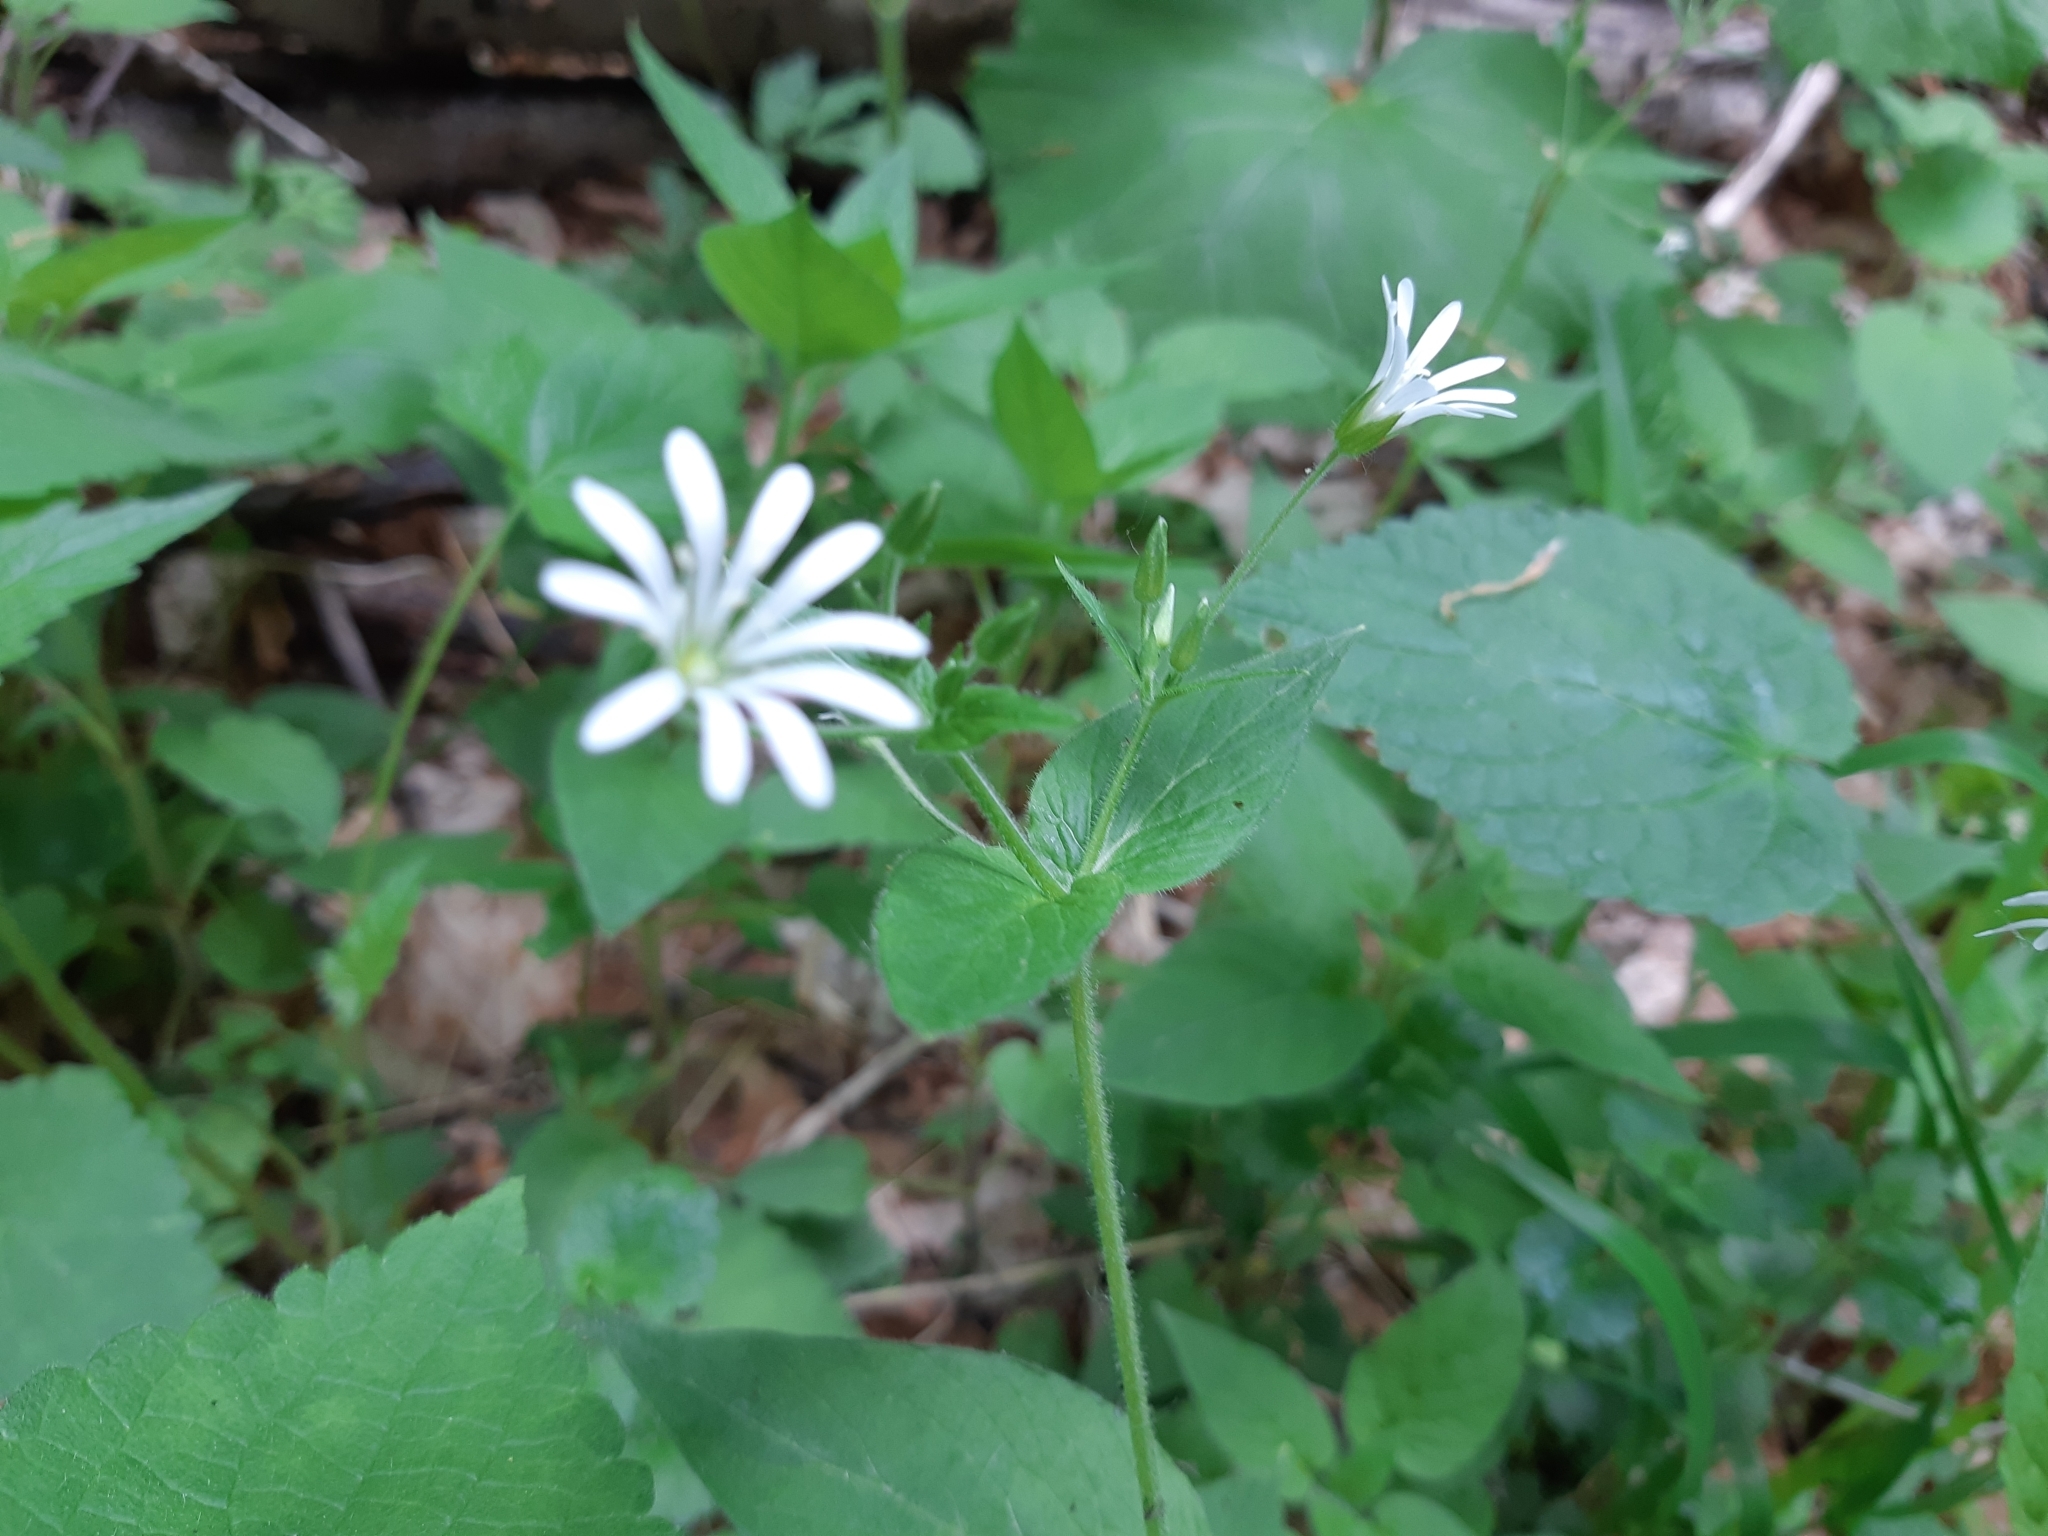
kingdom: Plantae
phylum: Tracheophyta
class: Magnoliopsida
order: Caryophyllales
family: Caryophyllaceae
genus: Stellaria
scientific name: Stellaria nemorum
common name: Wood stitchwort
